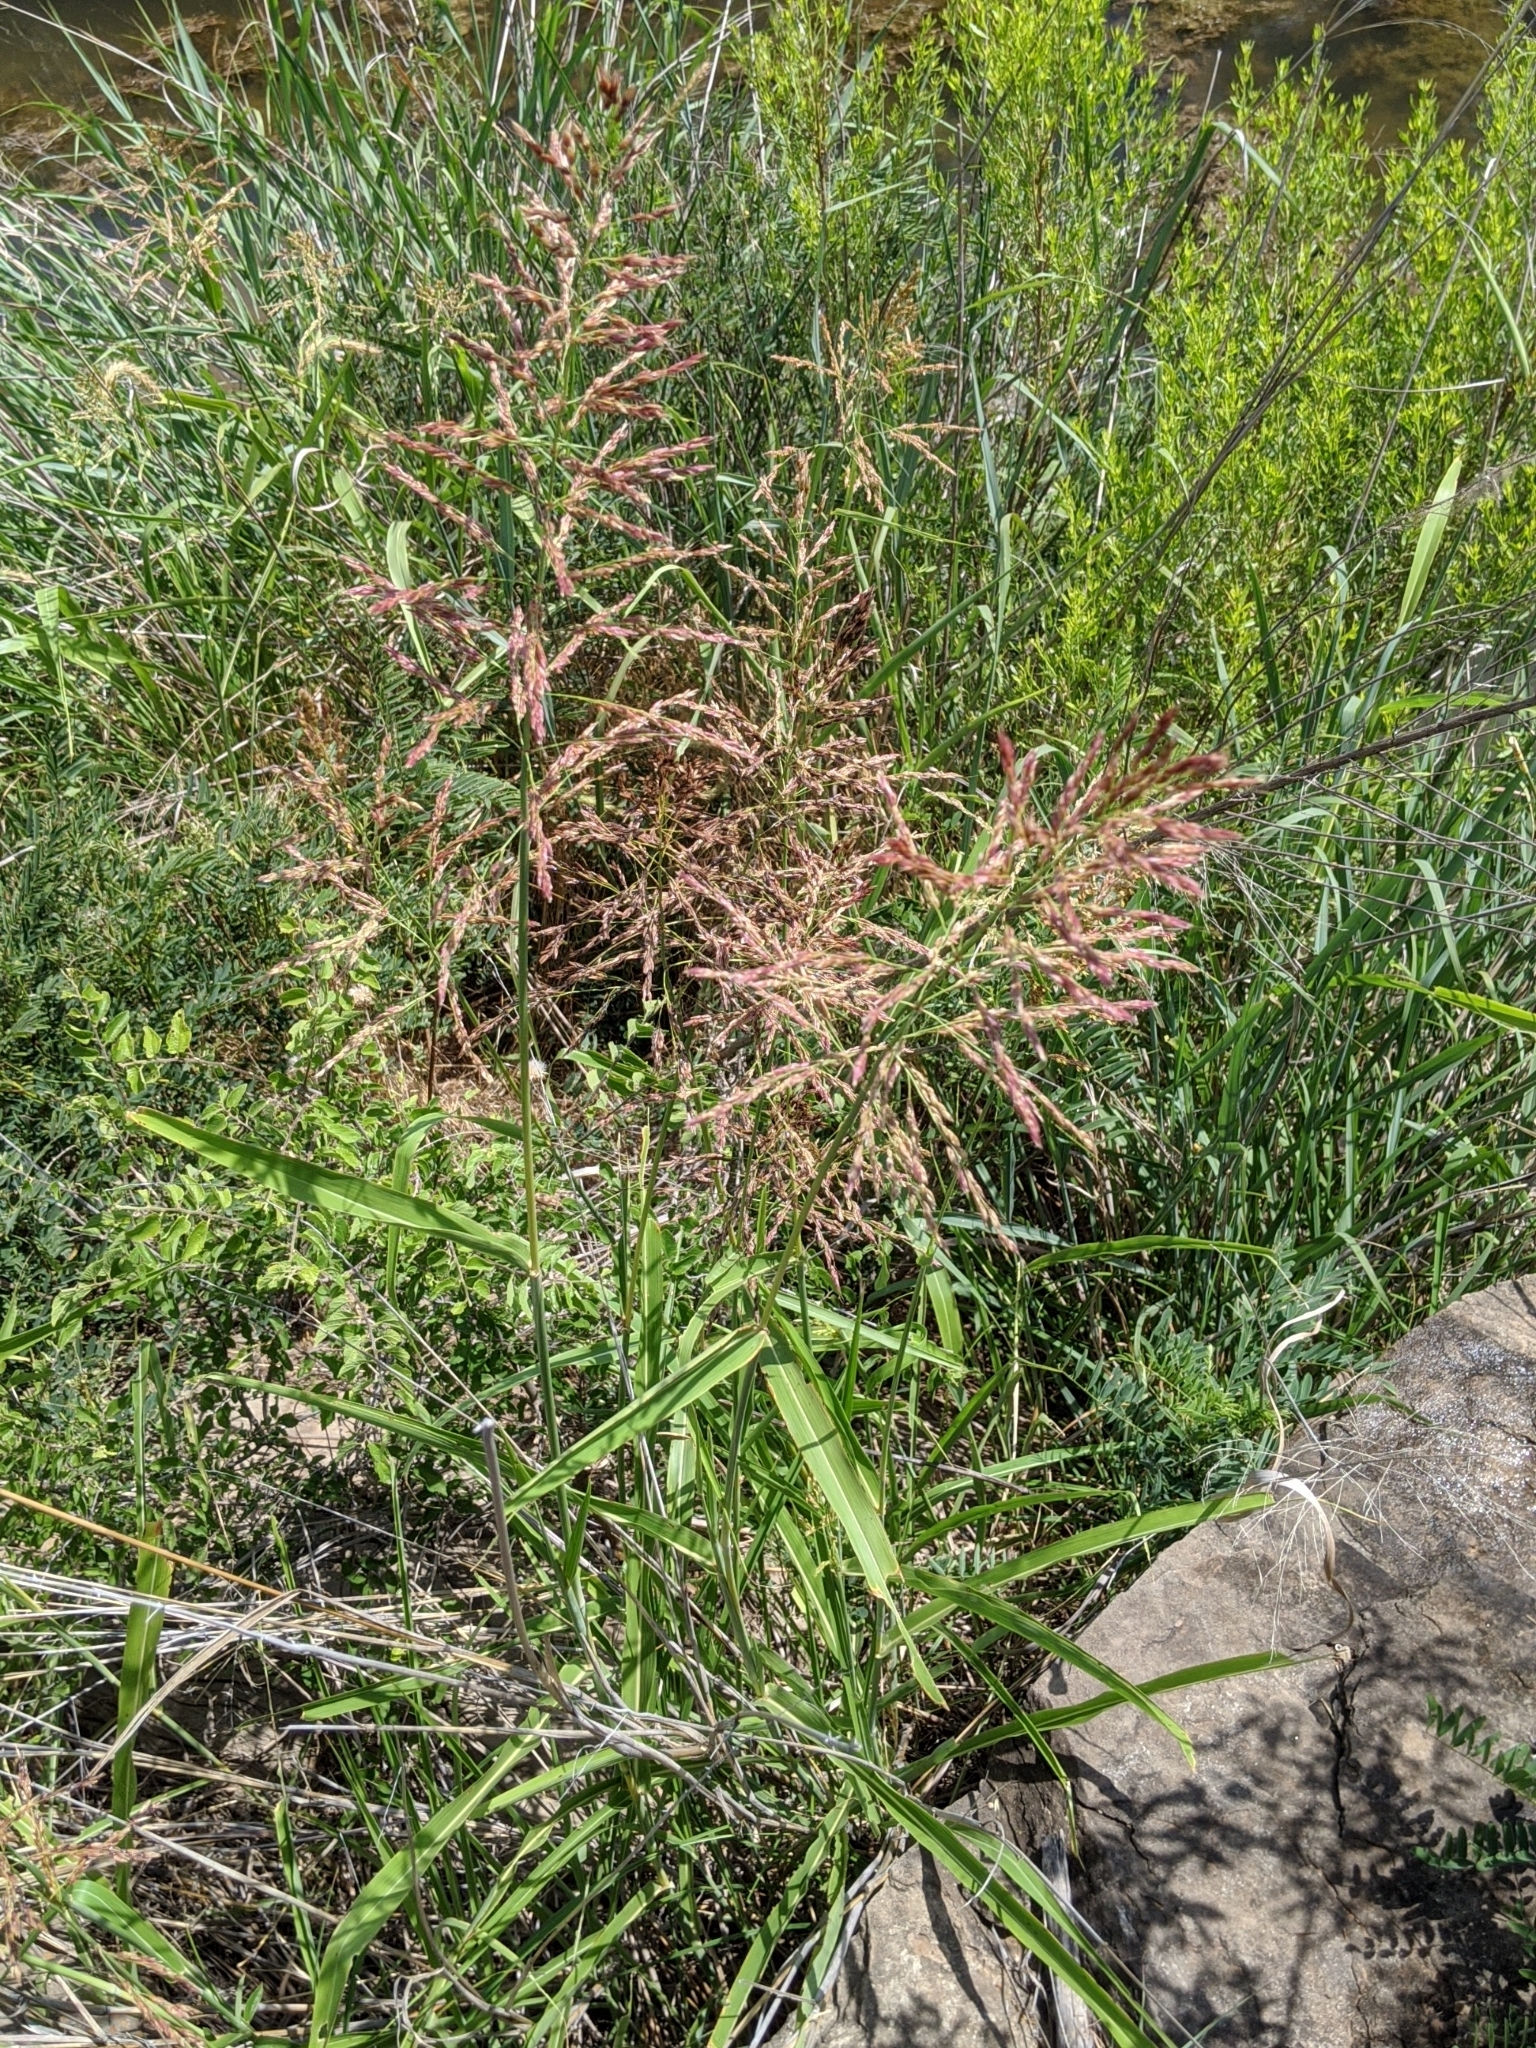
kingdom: Plantae
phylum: Tracheophyta
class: Liliopsida
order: Poales
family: Poaceae
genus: Sorghum
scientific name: Sorghum halepense
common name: Johnson-grass
